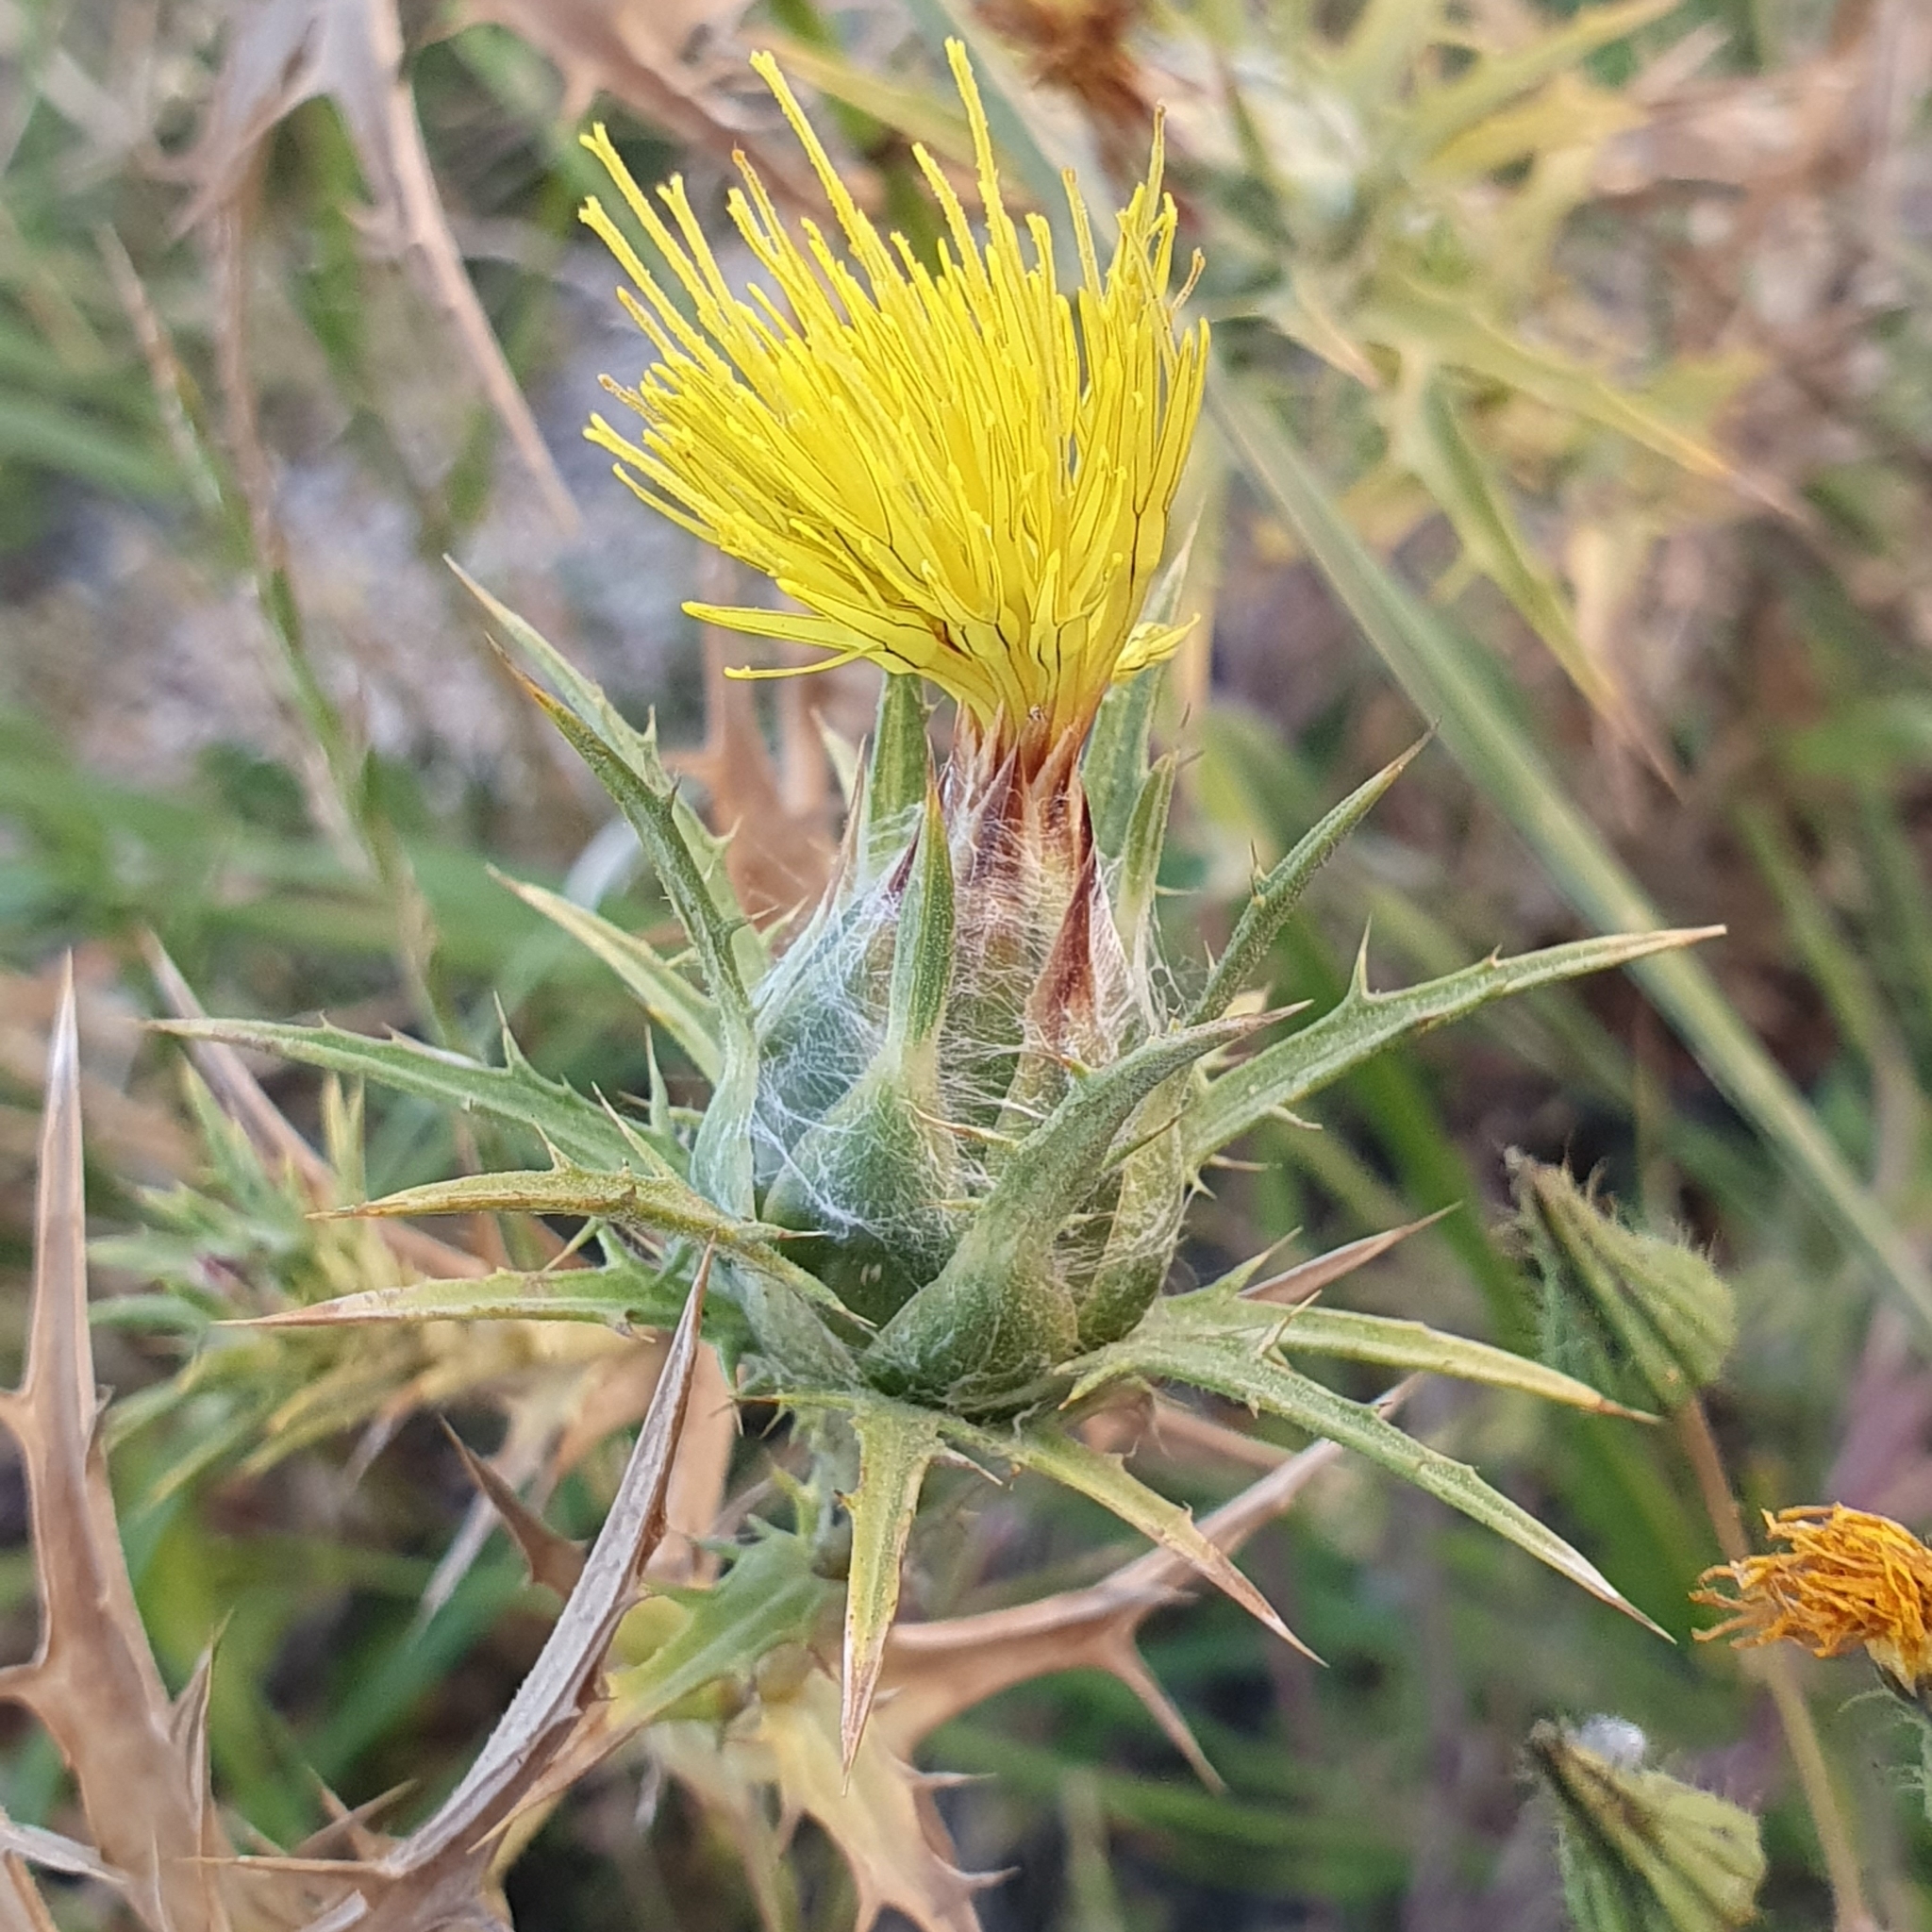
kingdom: Plantae
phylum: Tracheophyta
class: Magnoliopsida
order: Asterales
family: Asteraceae
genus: Carthamus
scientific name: Carthamus lanatus
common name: Downy safflower
